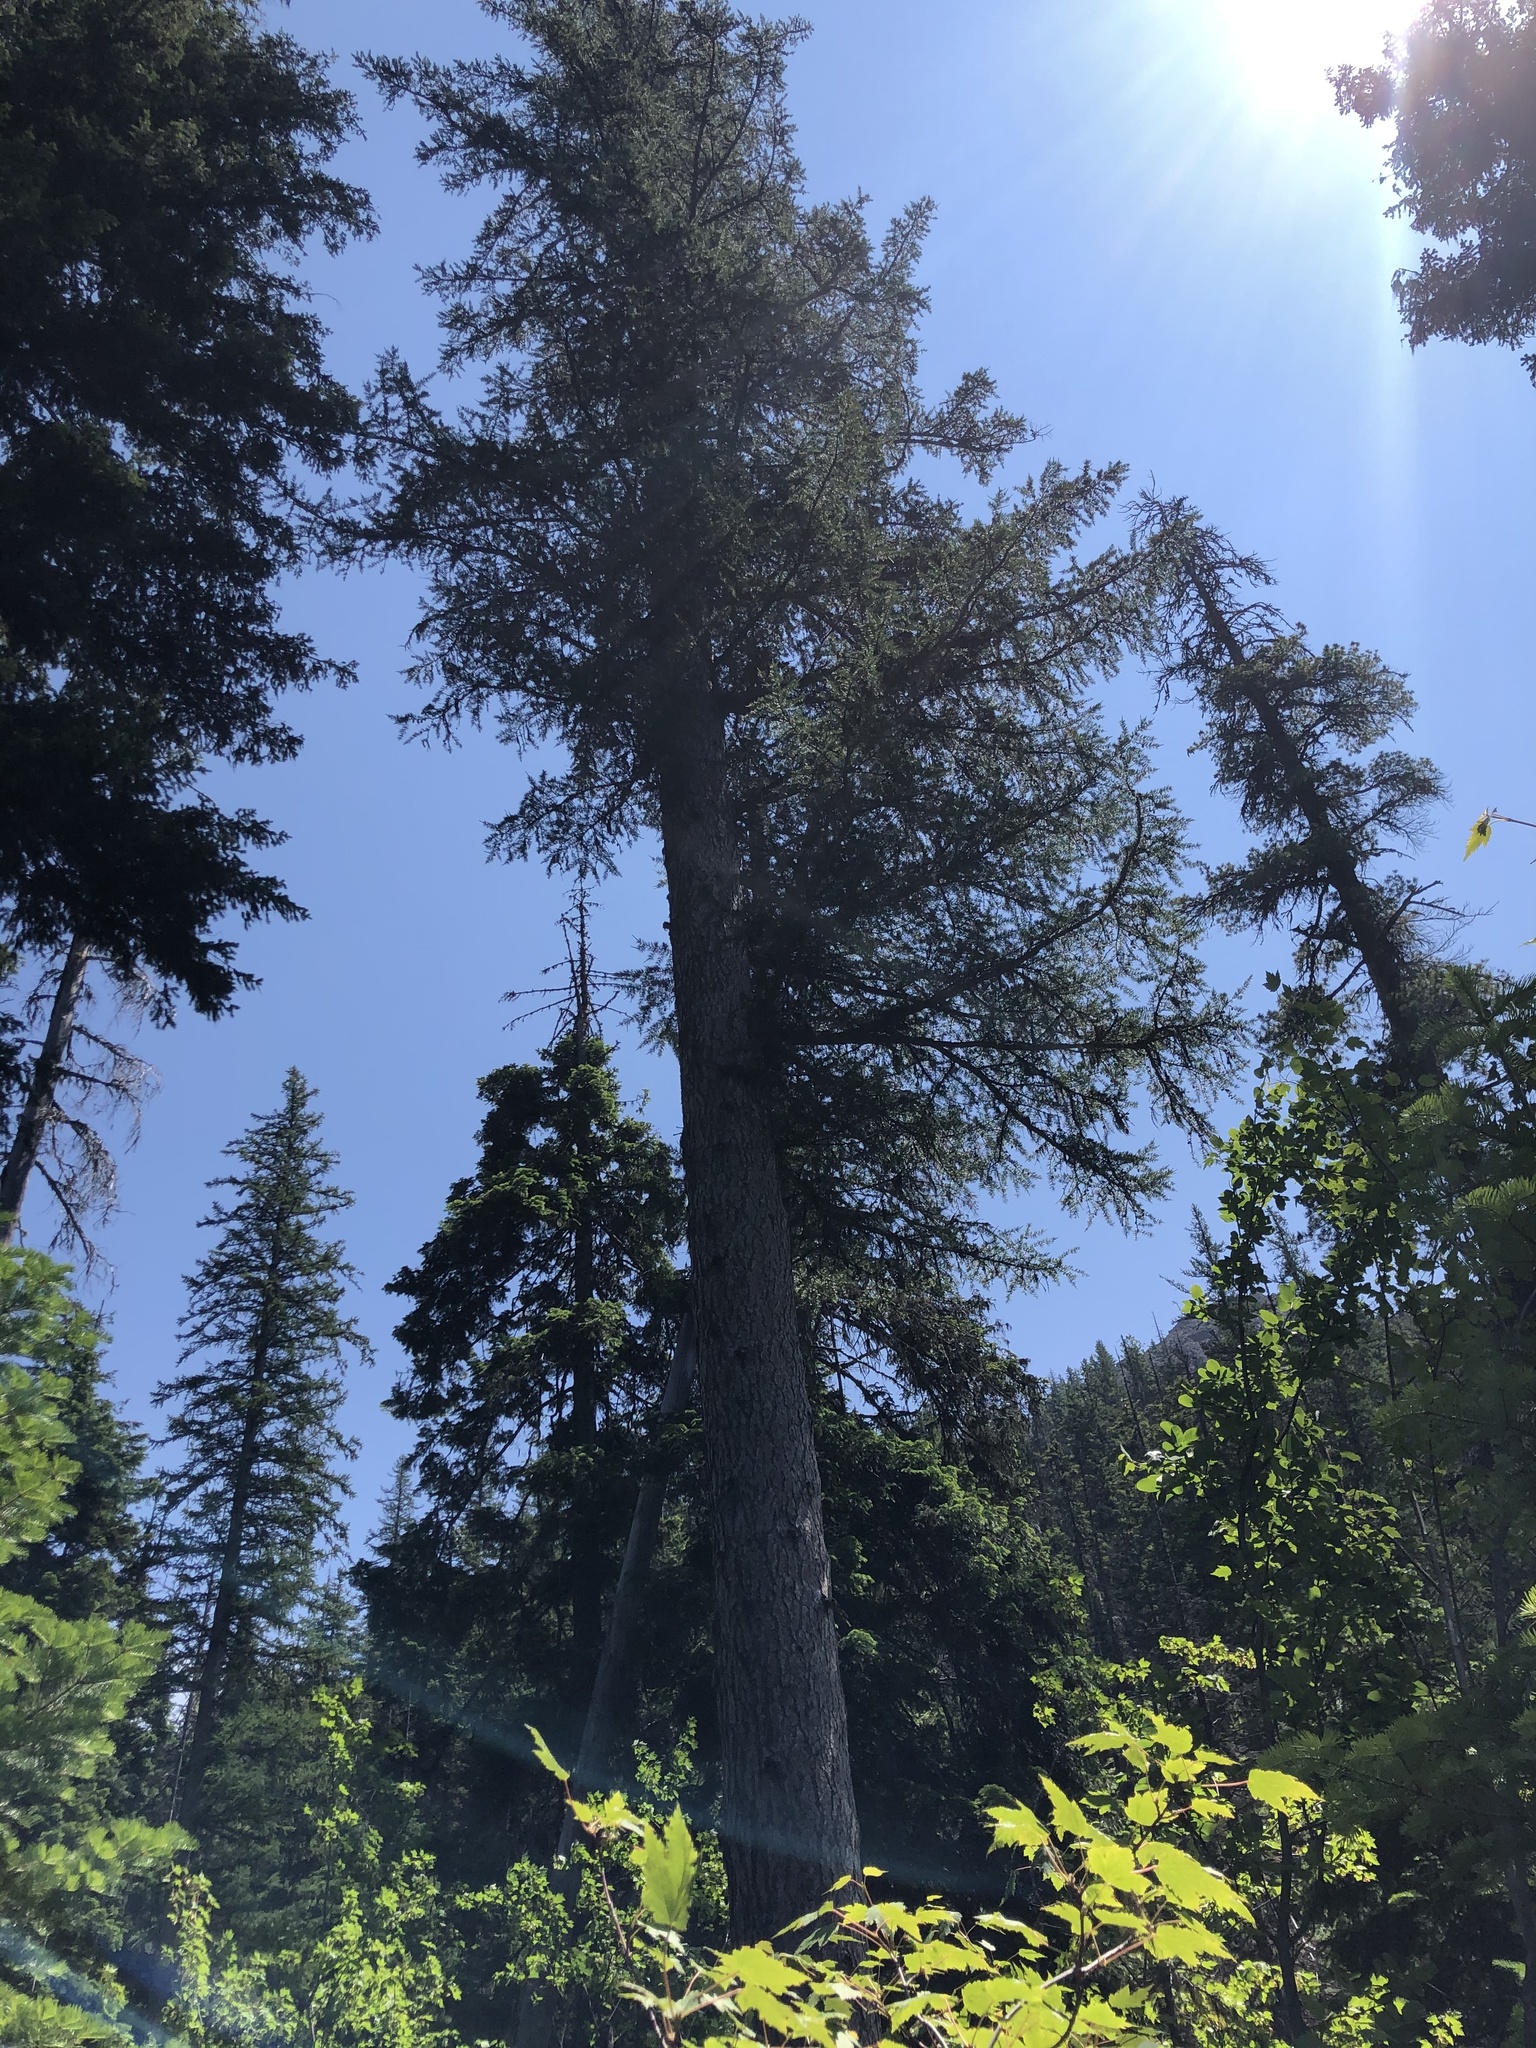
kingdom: Plantae
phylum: Tracheophyta
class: Pinopsida
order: Pinales
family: Pinaceae
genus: Larix
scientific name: Larix occidentalis
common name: Western larch
